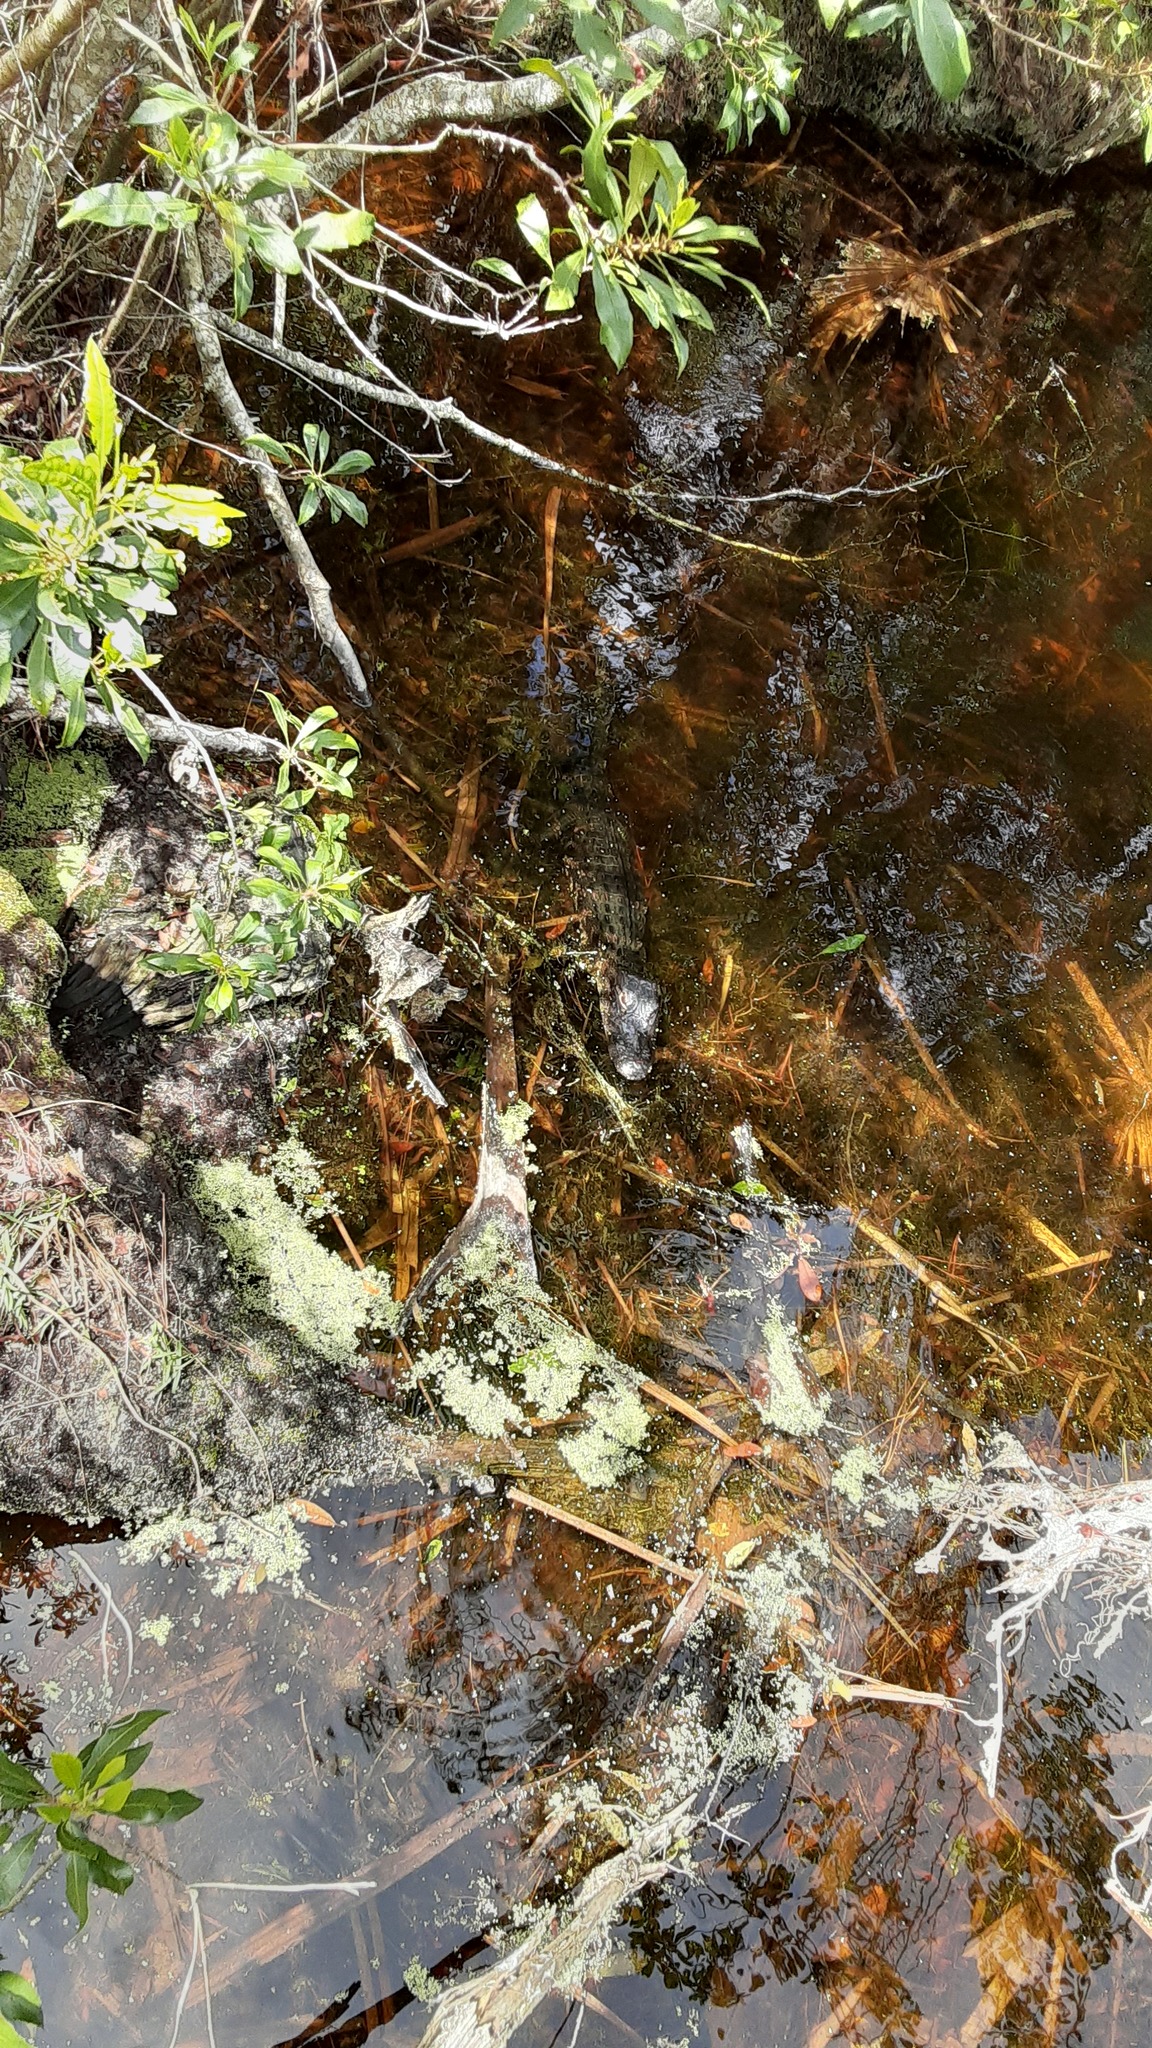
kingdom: Animalia
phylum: Chordata
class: Crocodylia
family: Alligatoridae
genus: Alligator
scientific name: Alligator mississippiensis
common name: American alligator
